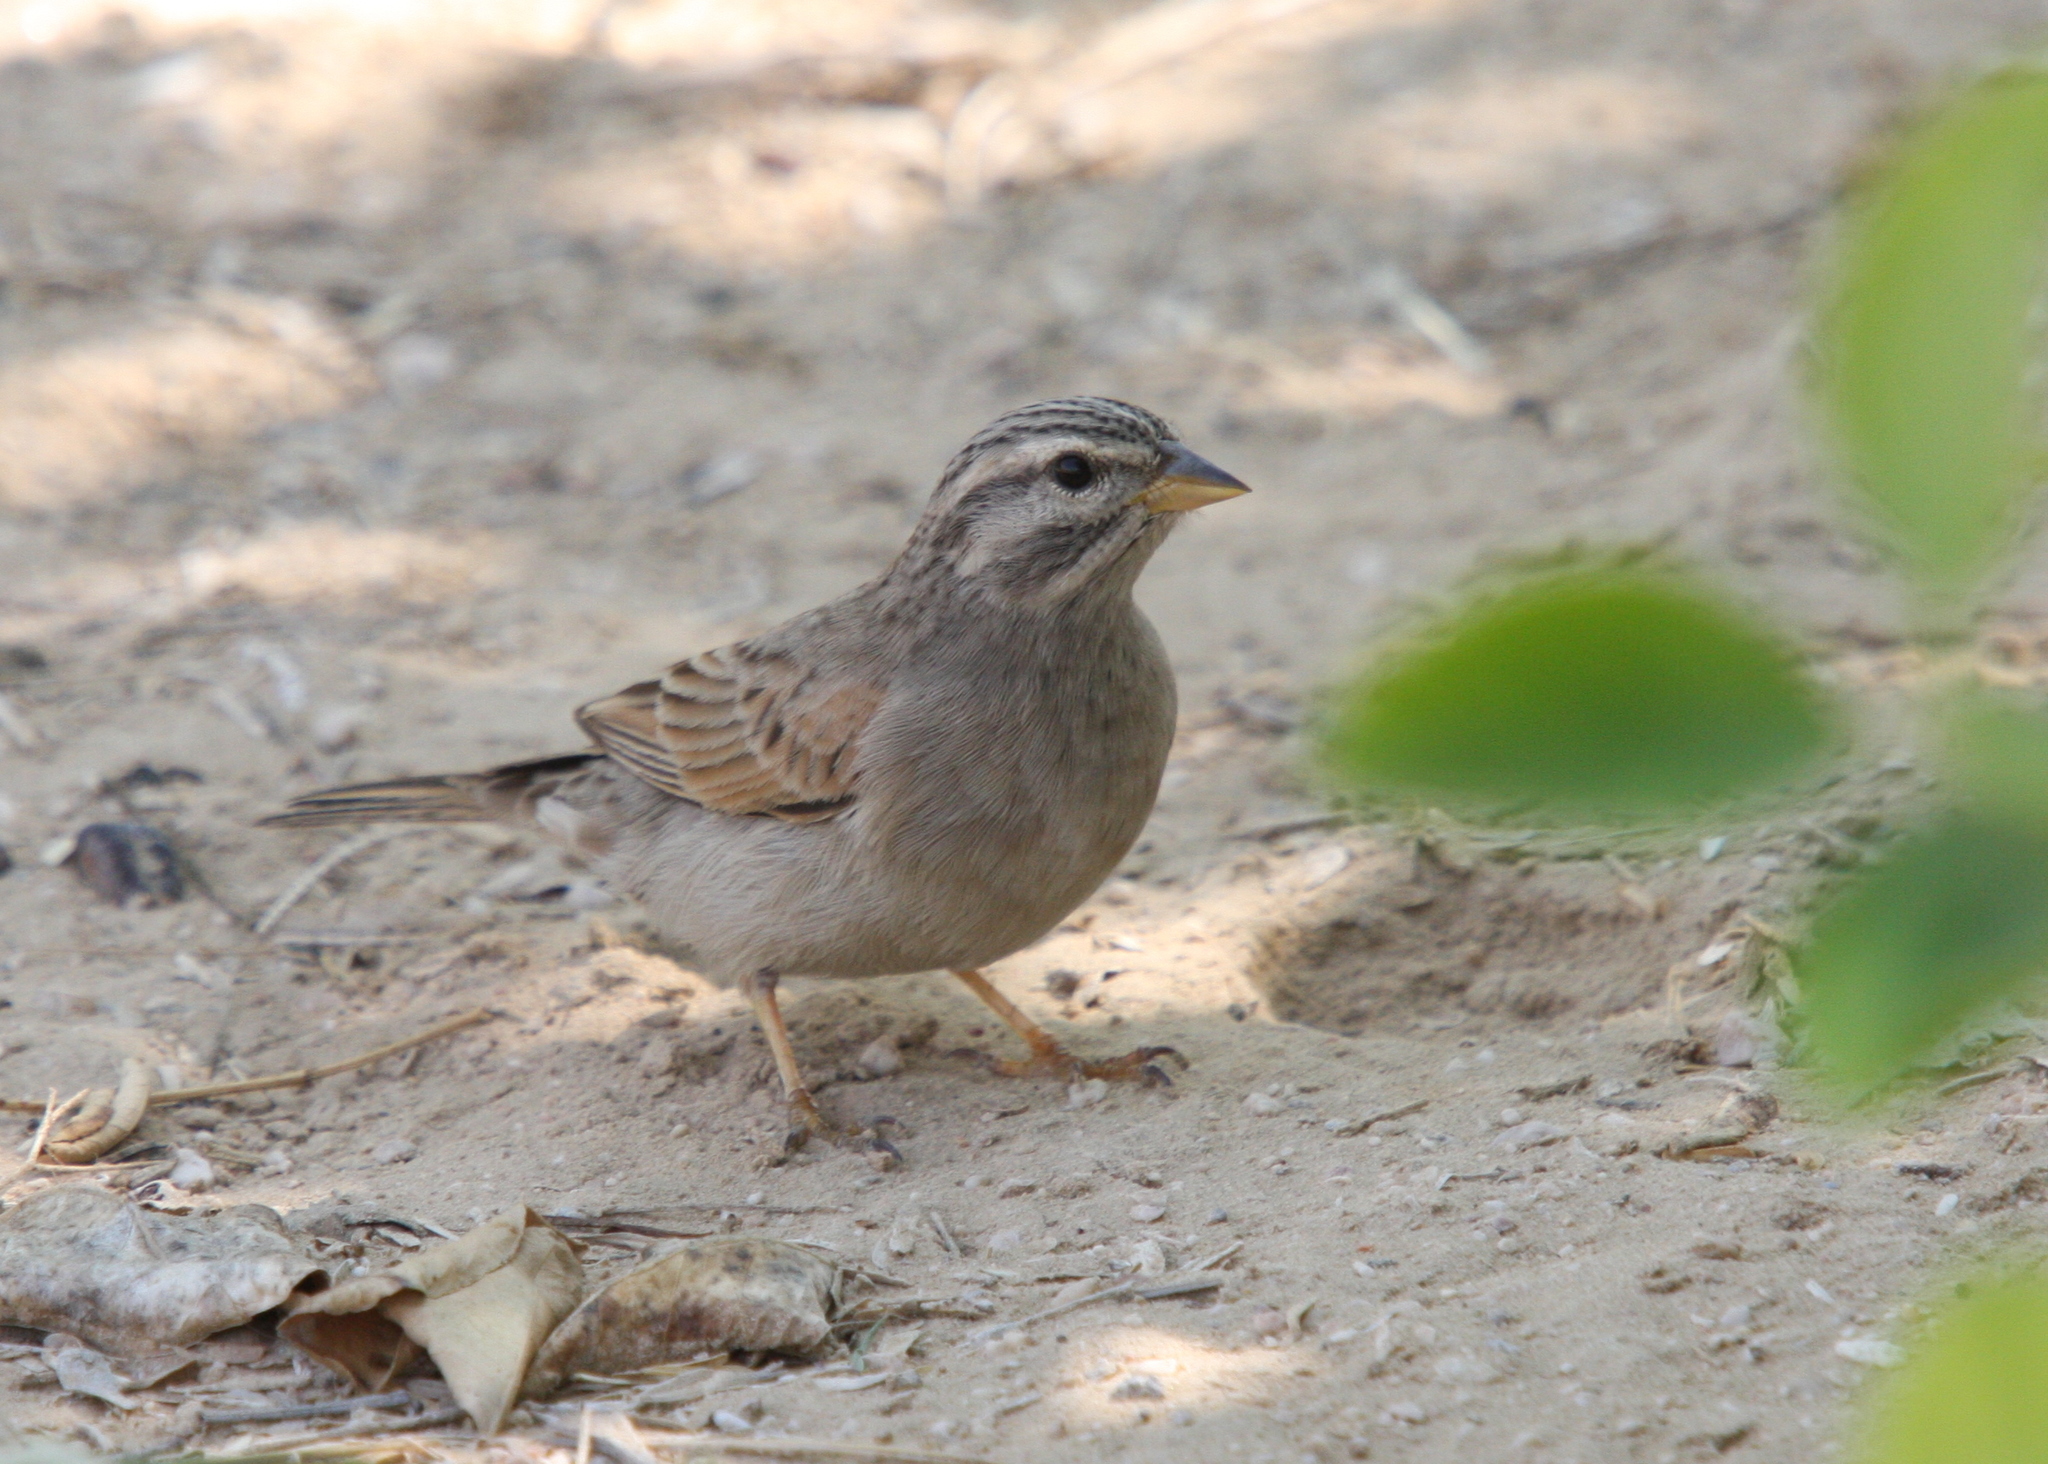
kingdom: Animalia
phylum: Chordata
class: Aves
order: Passeriformes
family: Emberizidae
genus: Emberiza
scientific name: Emberiza striolata
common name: Striolated bunting
